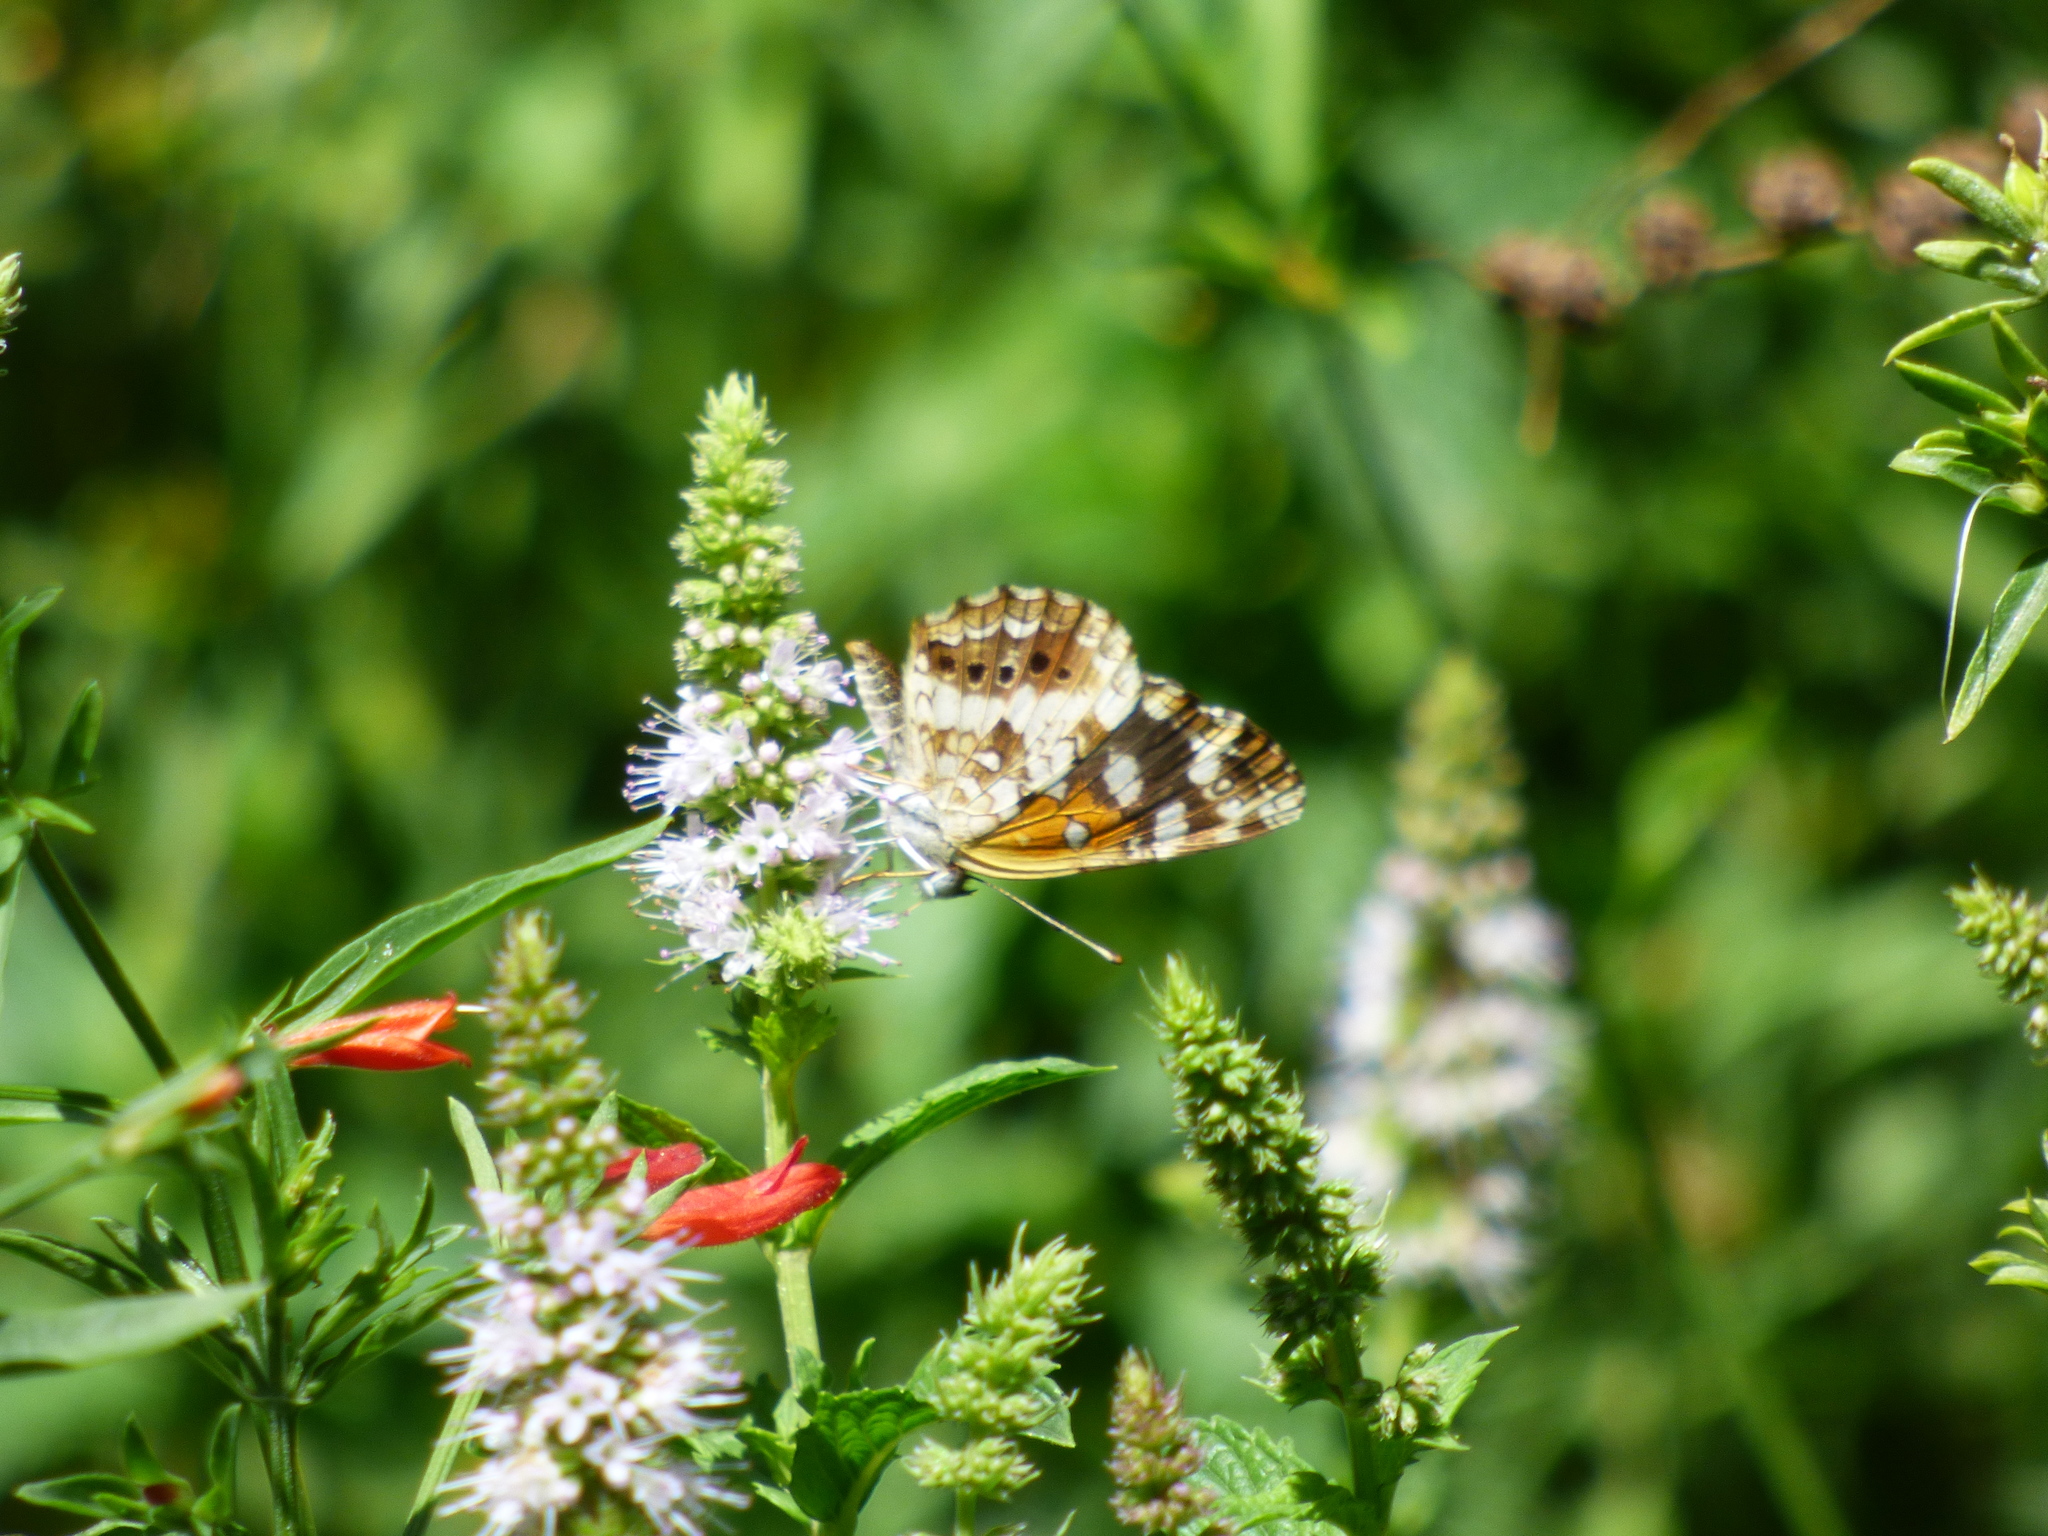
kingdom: Animalia
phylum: Arthropoda
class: Insecta
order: Lepidoptera
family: Nymphalidae
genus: Ortilia
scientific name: Ortilia ithra
